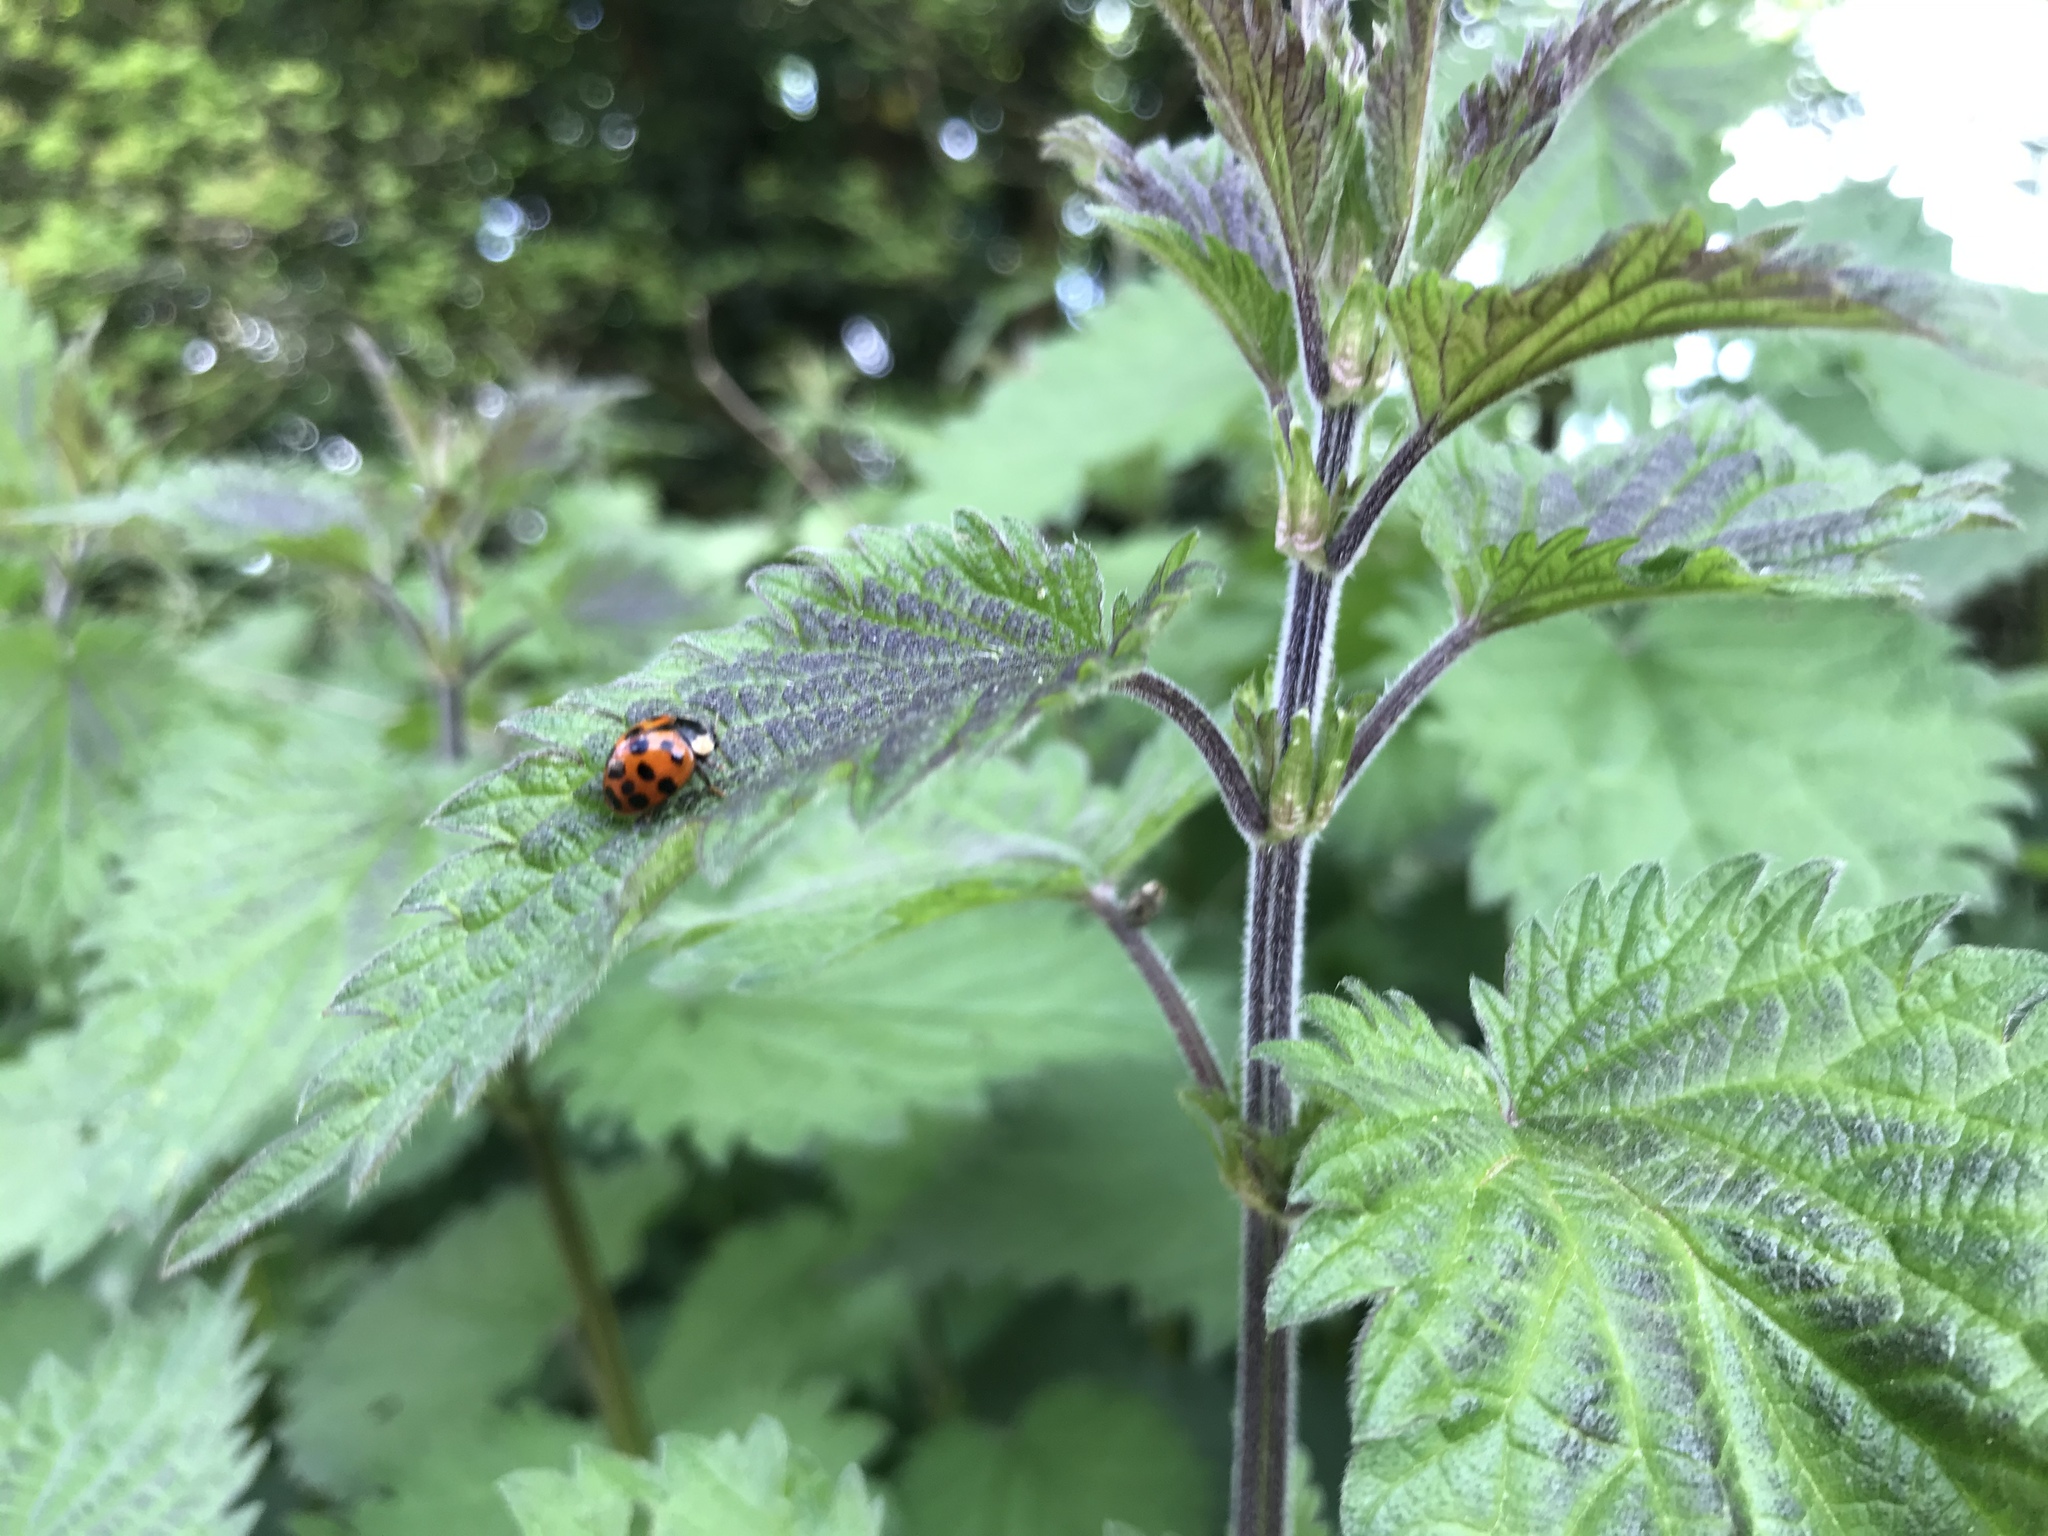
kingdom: Animalia
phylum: Arthropoda
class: Insecta
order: Coleoptera
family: Coccinellidae
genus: Harmonia
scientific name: Harmonia axyridis
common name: Harlequin ladybird
